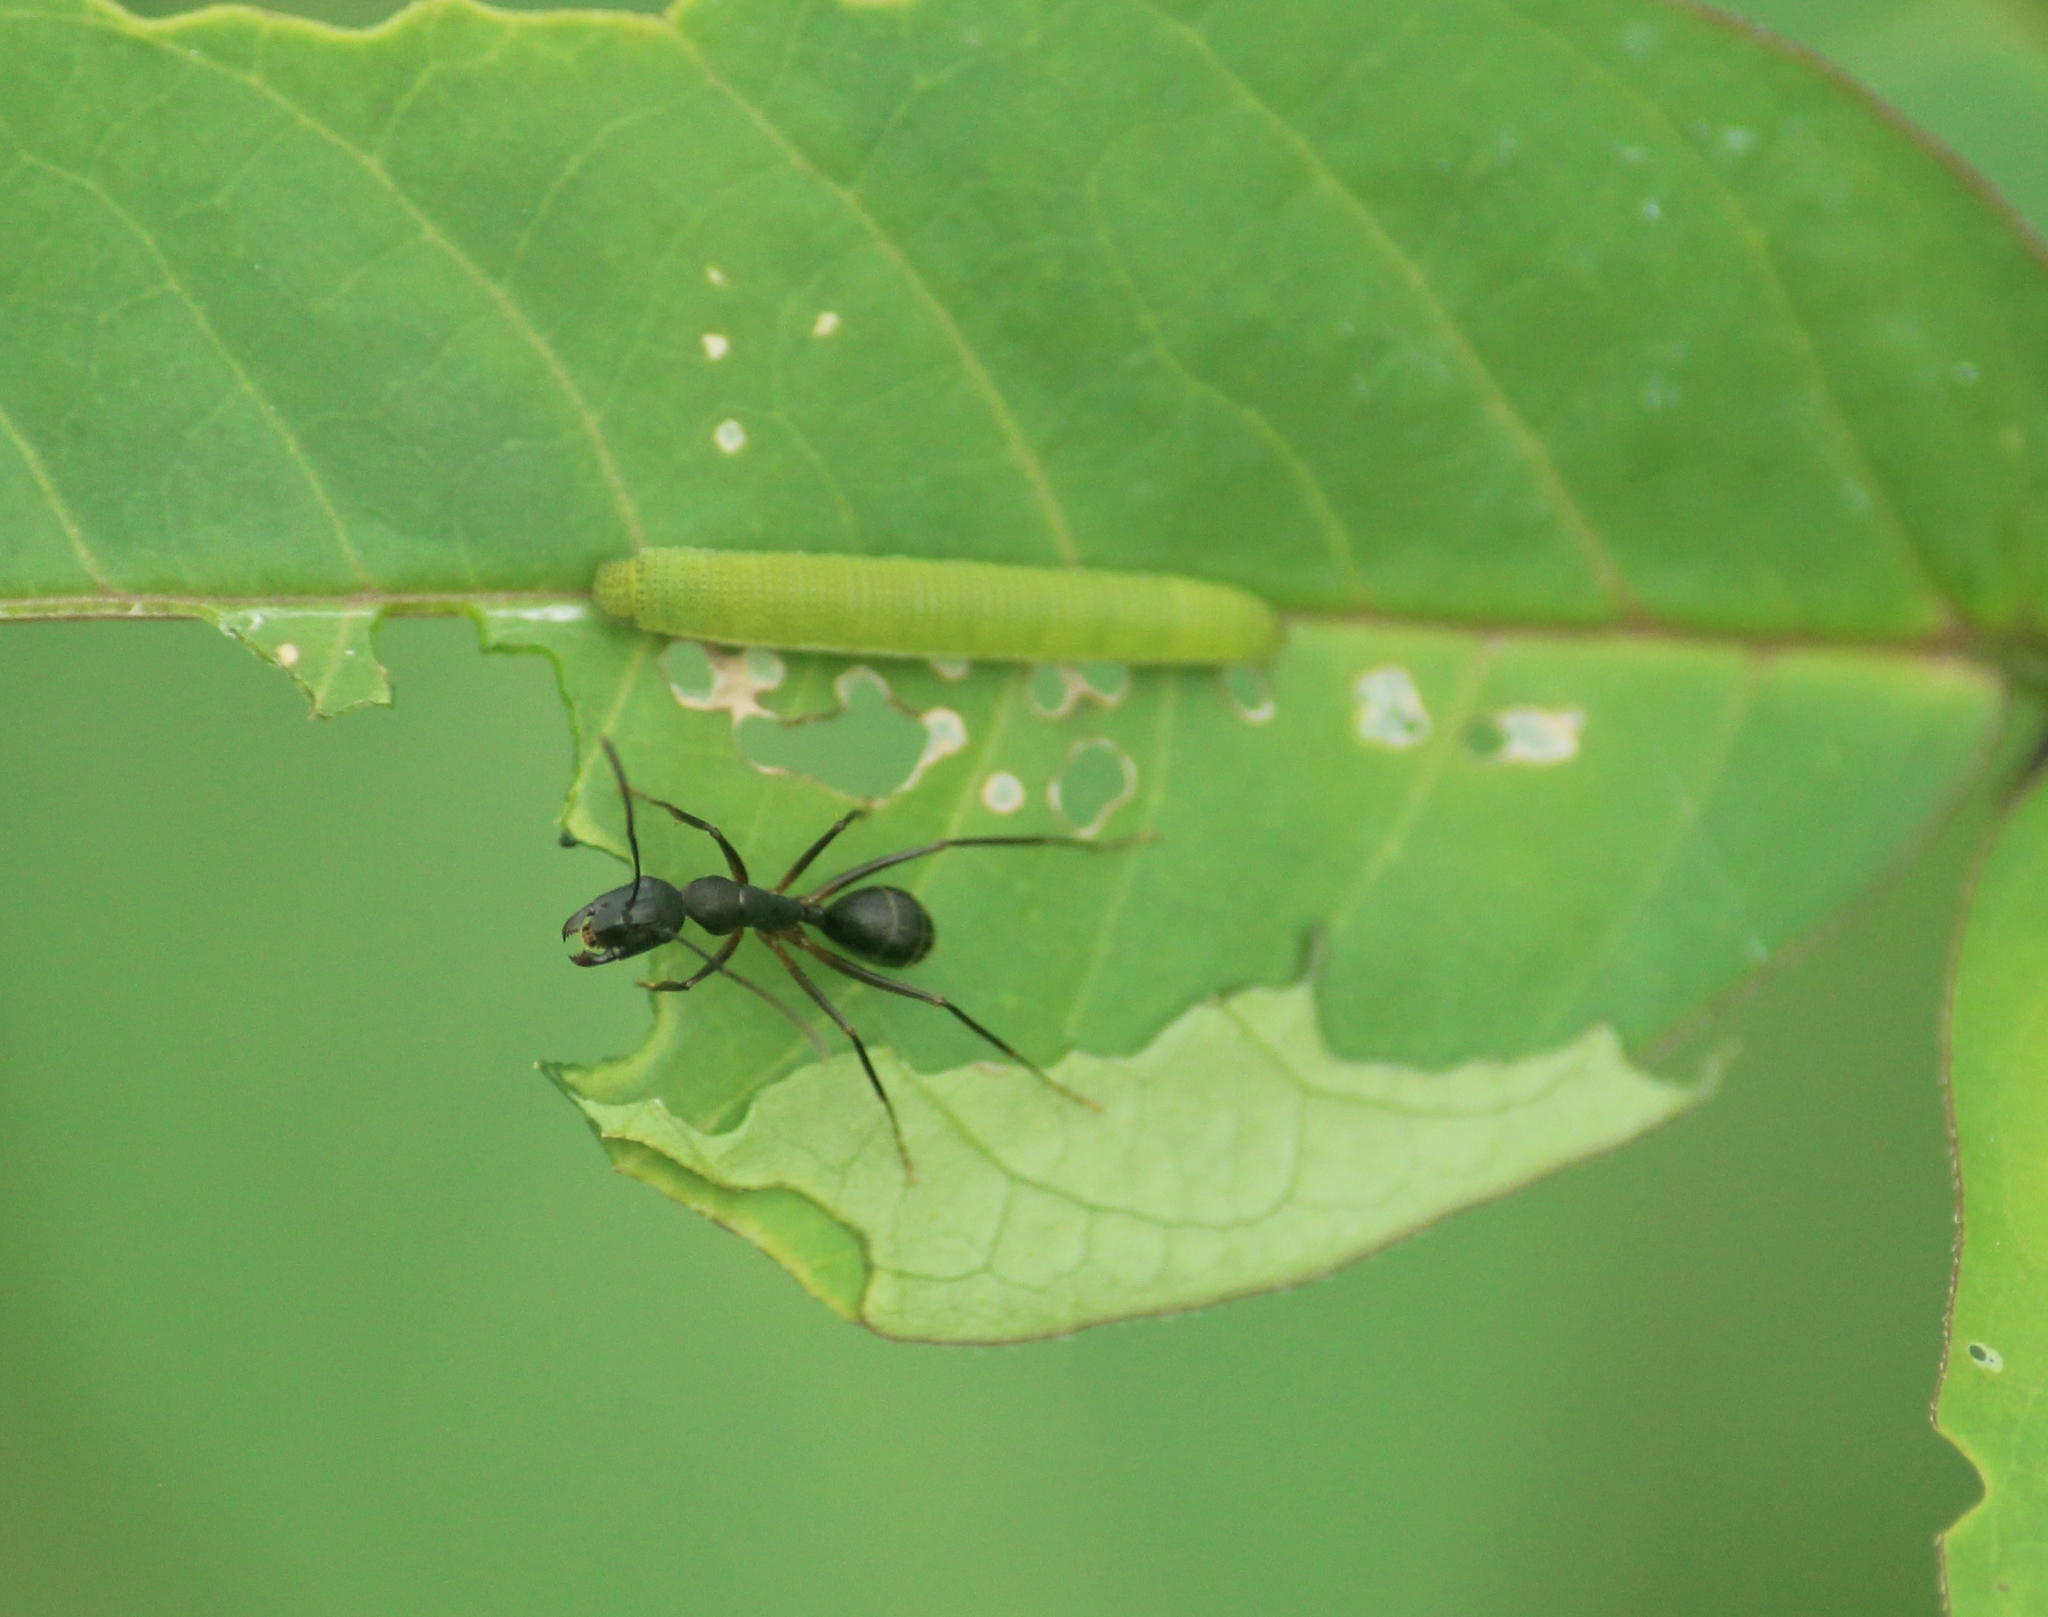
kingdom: Animalia
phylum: Arthropoda
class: Insecta
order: Hymenoptera
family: Formicidae
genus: Camponotus
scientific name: Camponotus compressus
